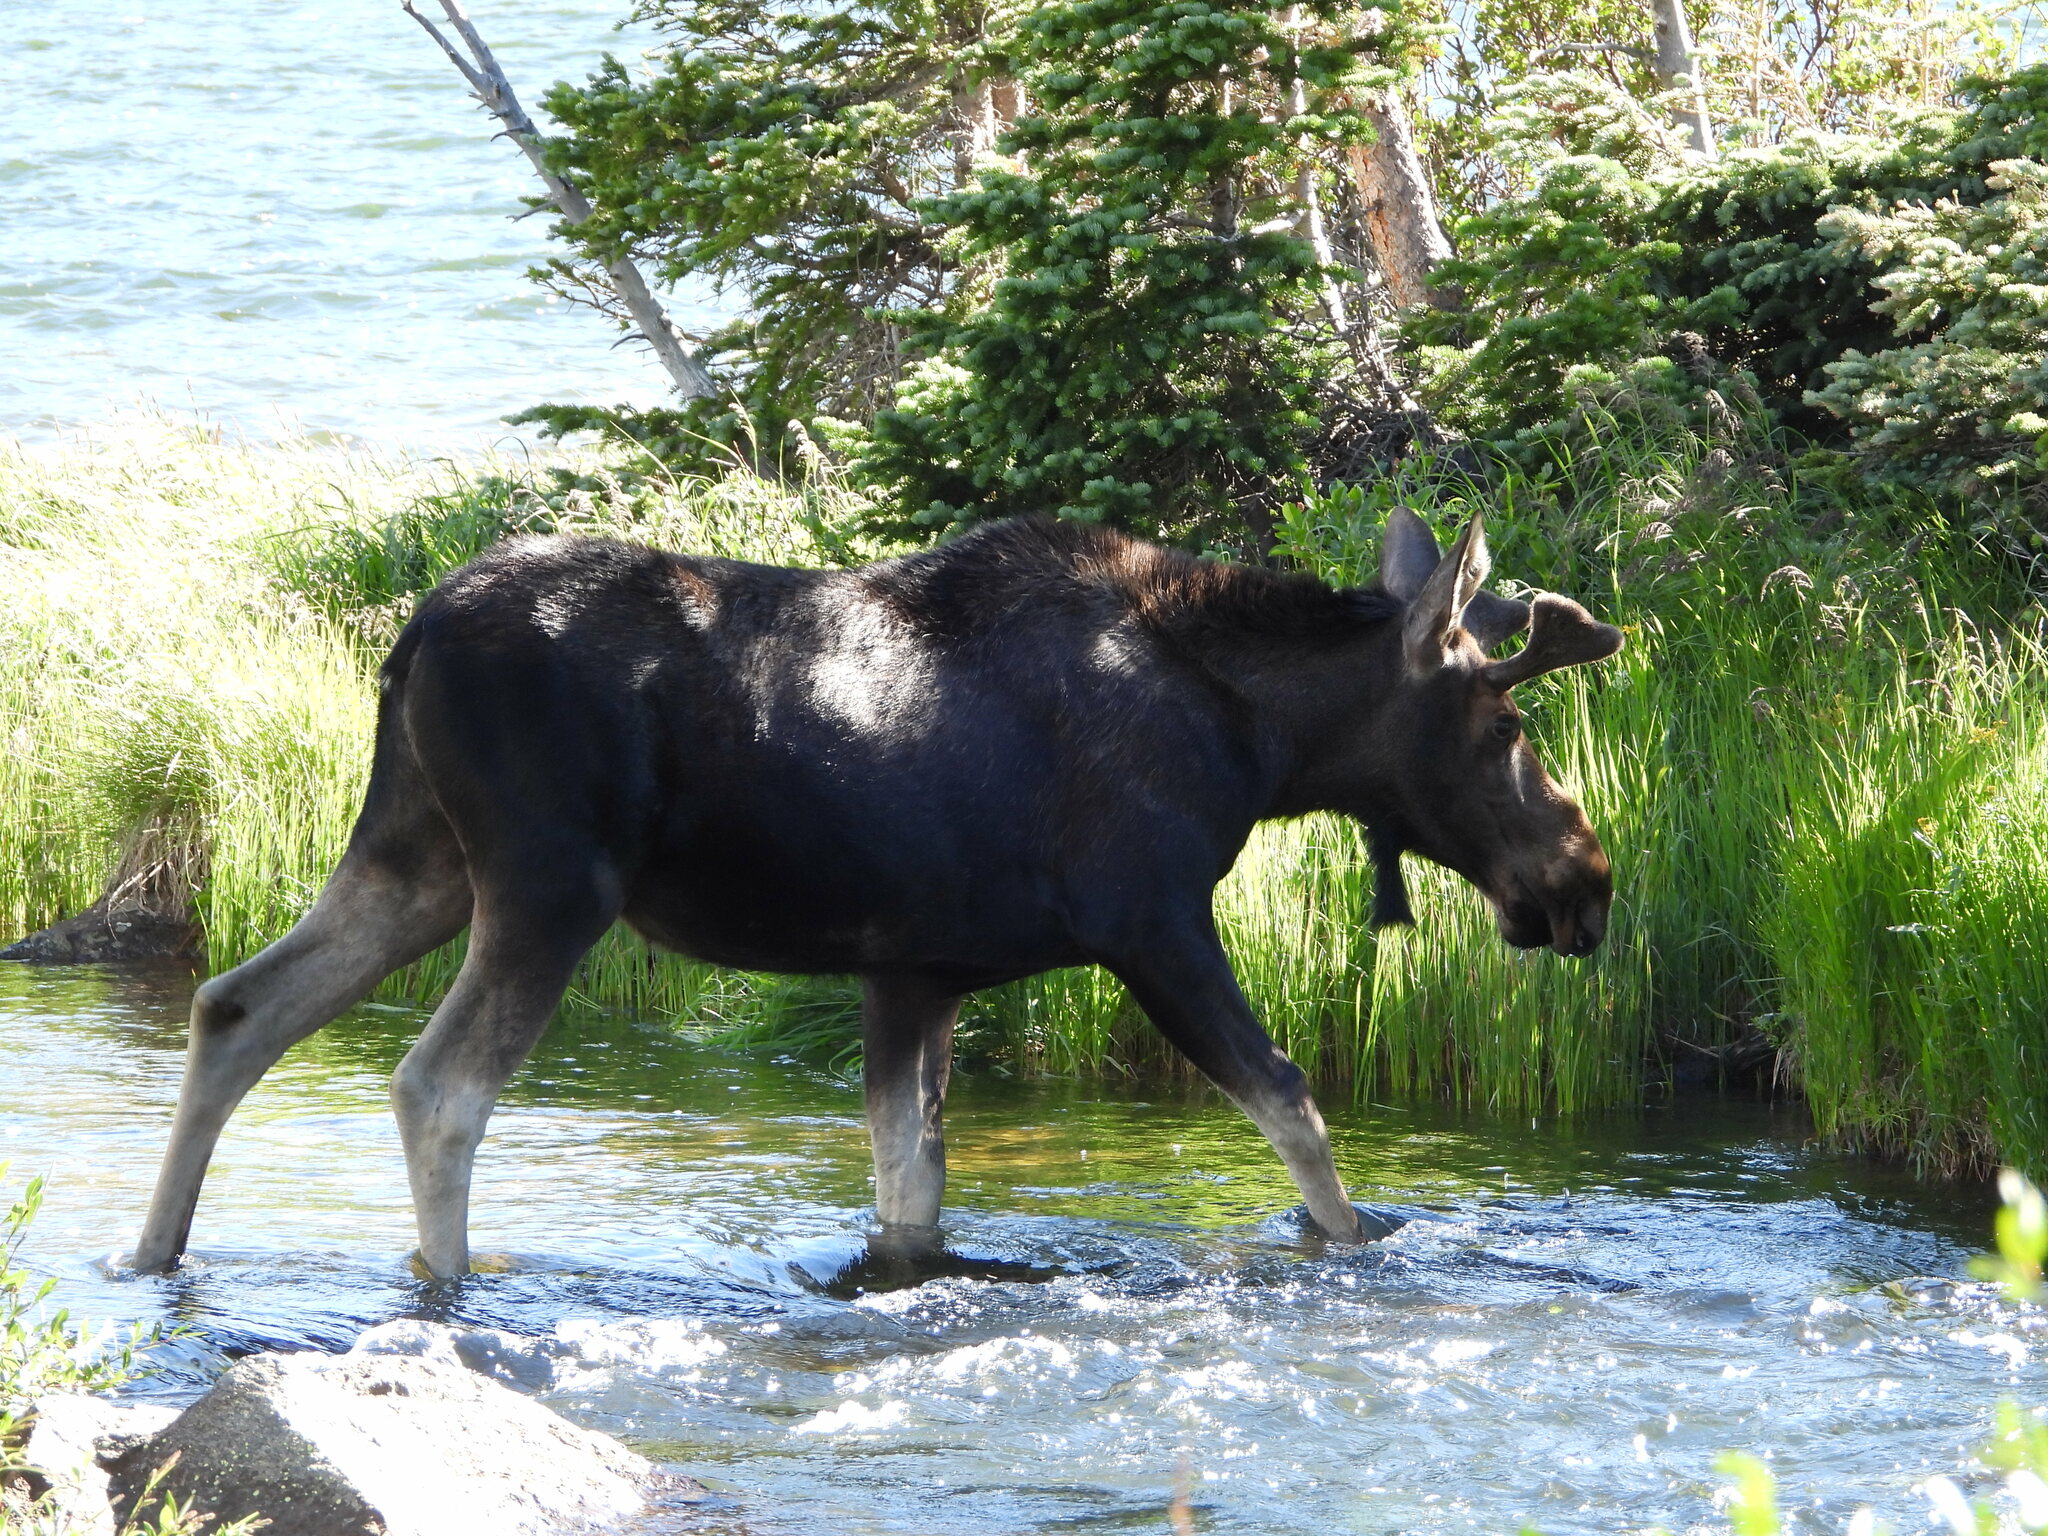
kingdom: Animalia
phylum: Chordata
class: Mammalia
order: Artiodactyla
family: Cervidae
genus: Alces
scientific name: Alces americanus
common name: Moose
